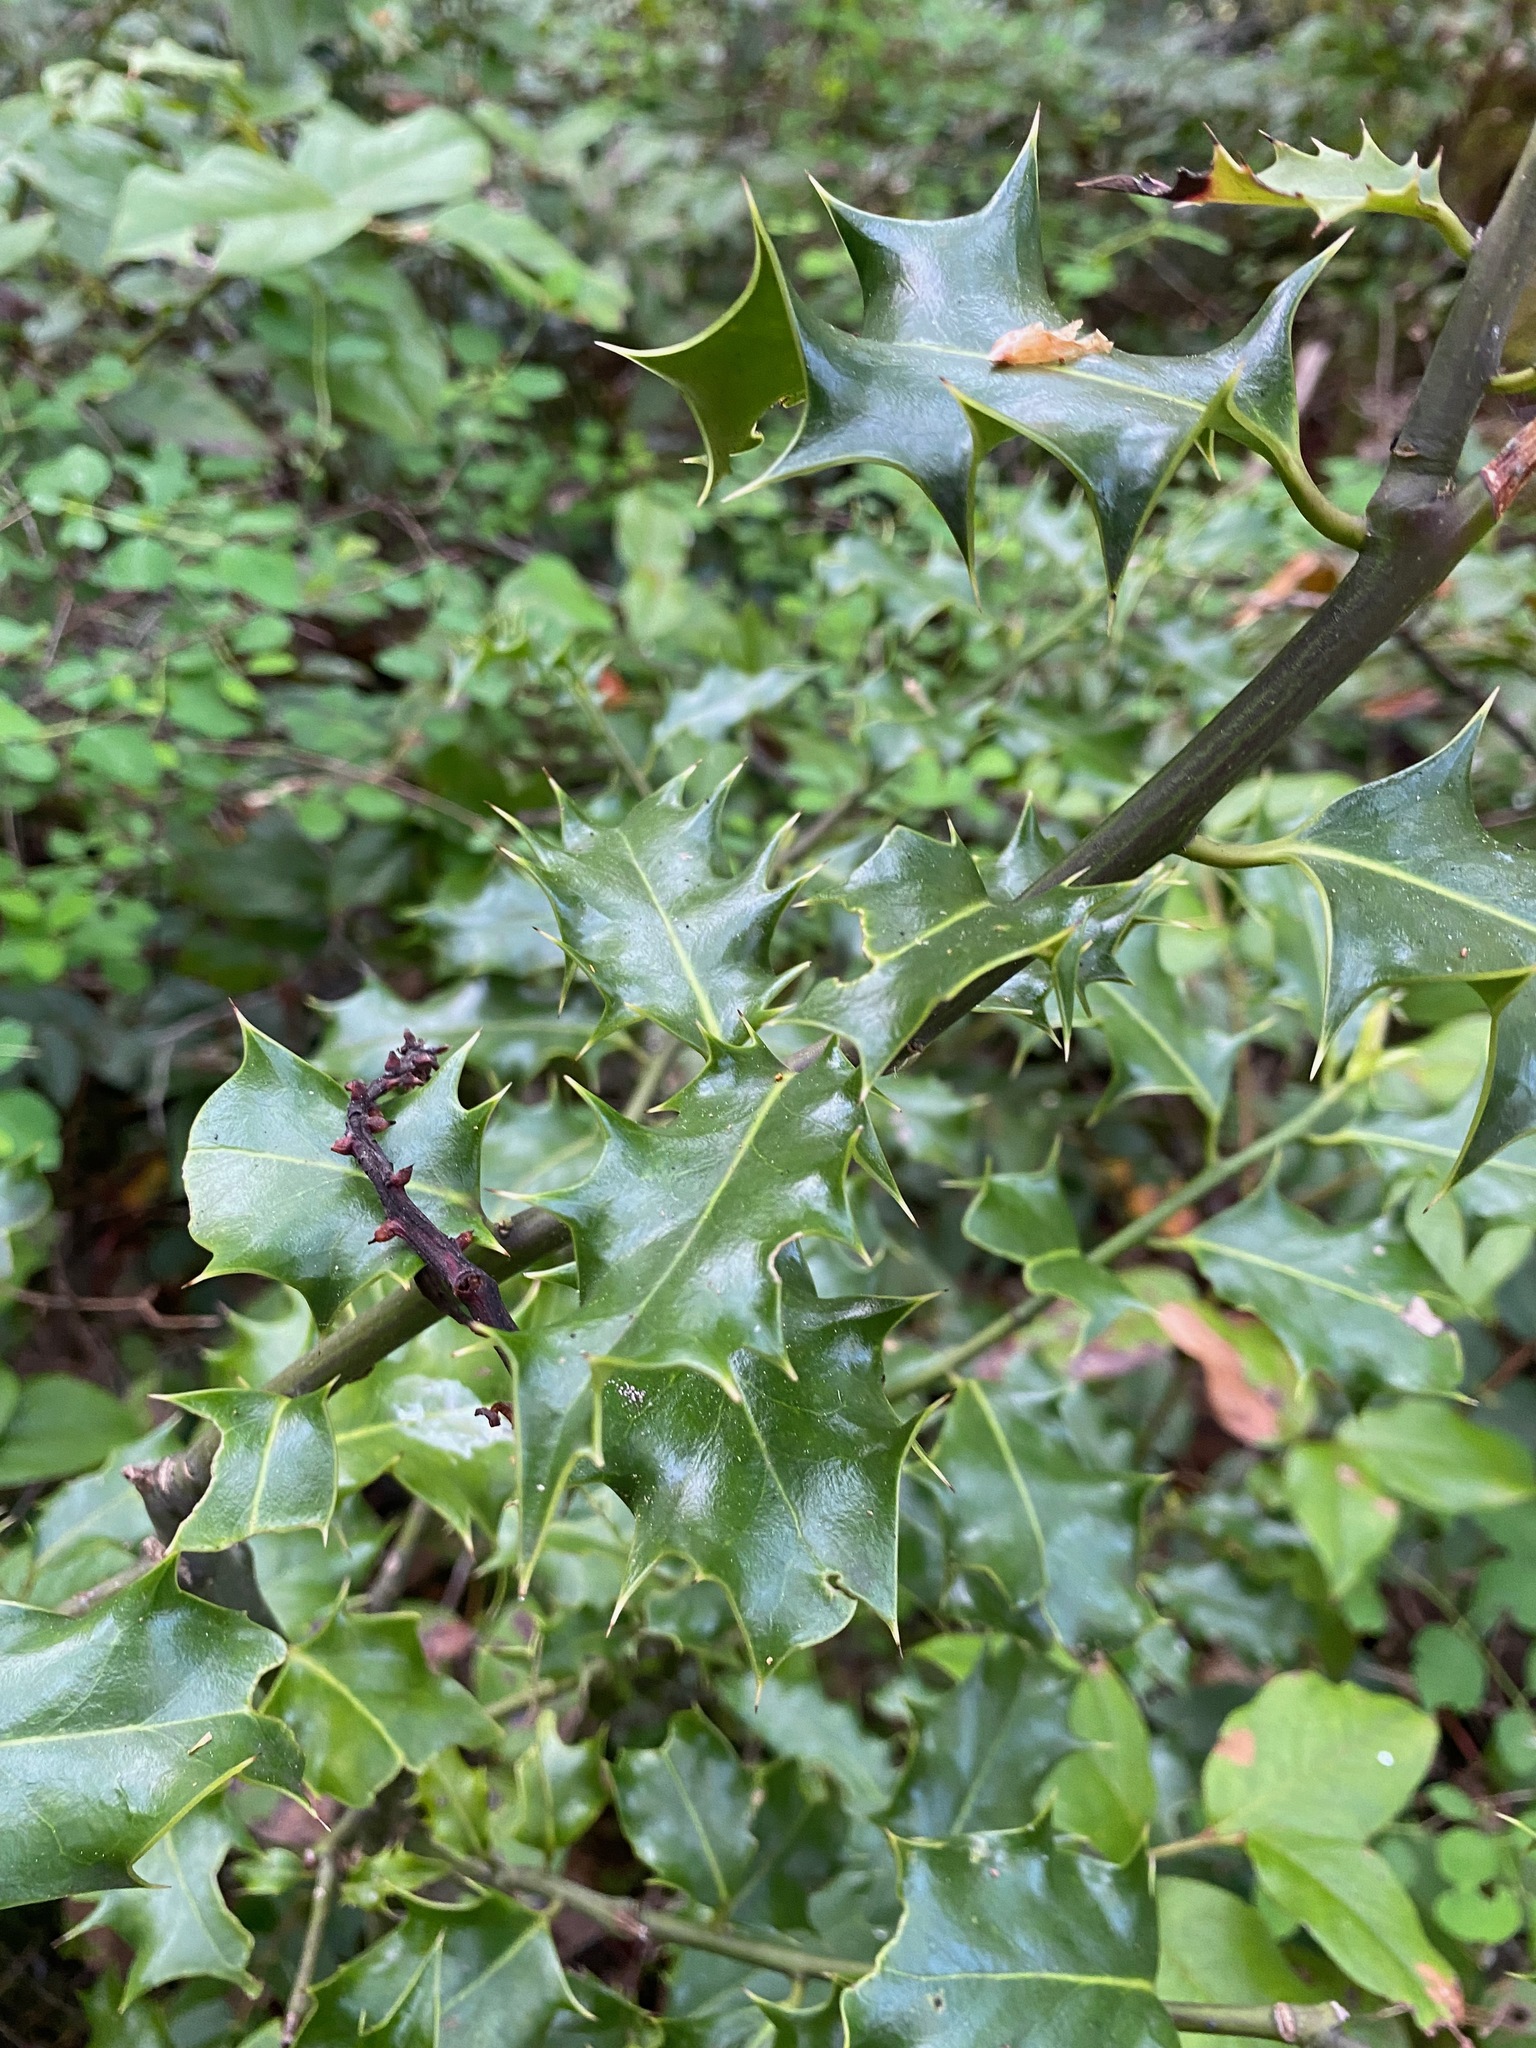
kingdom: Plantae
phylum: Tracheophyta
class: Magnoliopsida
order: Aquifoliales
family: Aquifoliaceae
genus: Ilex
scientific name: Ilex aquifolium
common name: English holly
